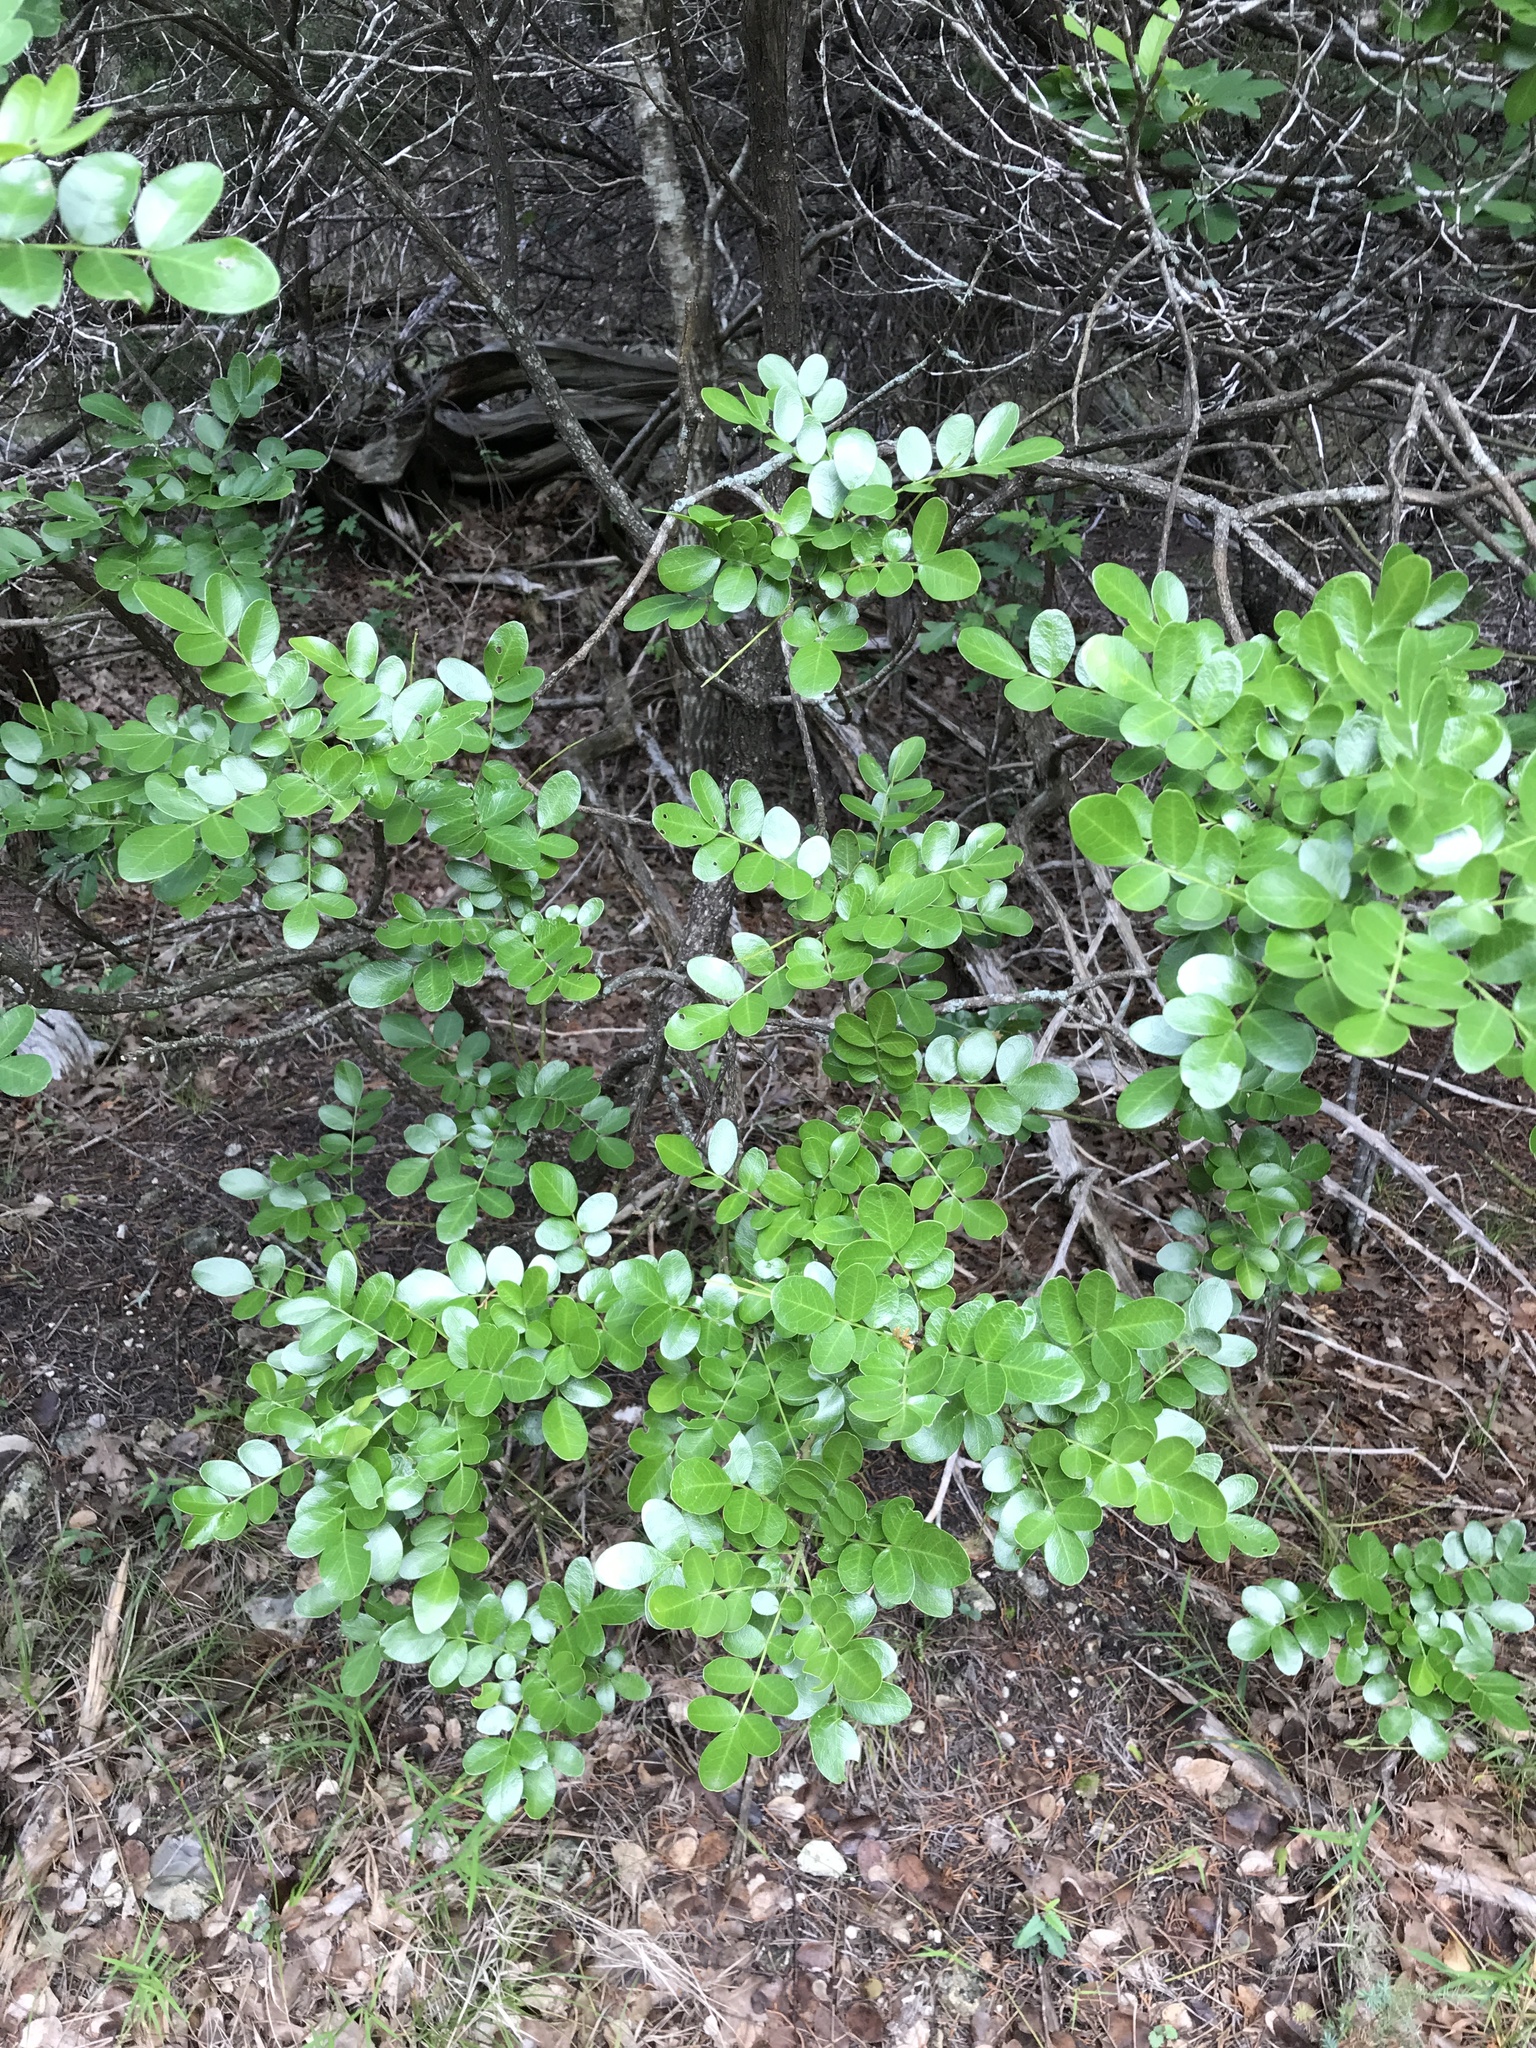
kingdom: Plantae
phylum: Tracheophyta
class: Magnoliopsida
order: Fabales
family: Fabaceae
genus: Dermatophyllum
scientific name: Dermatophyllum secundiflorum
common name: Texas-mountain-laurel
